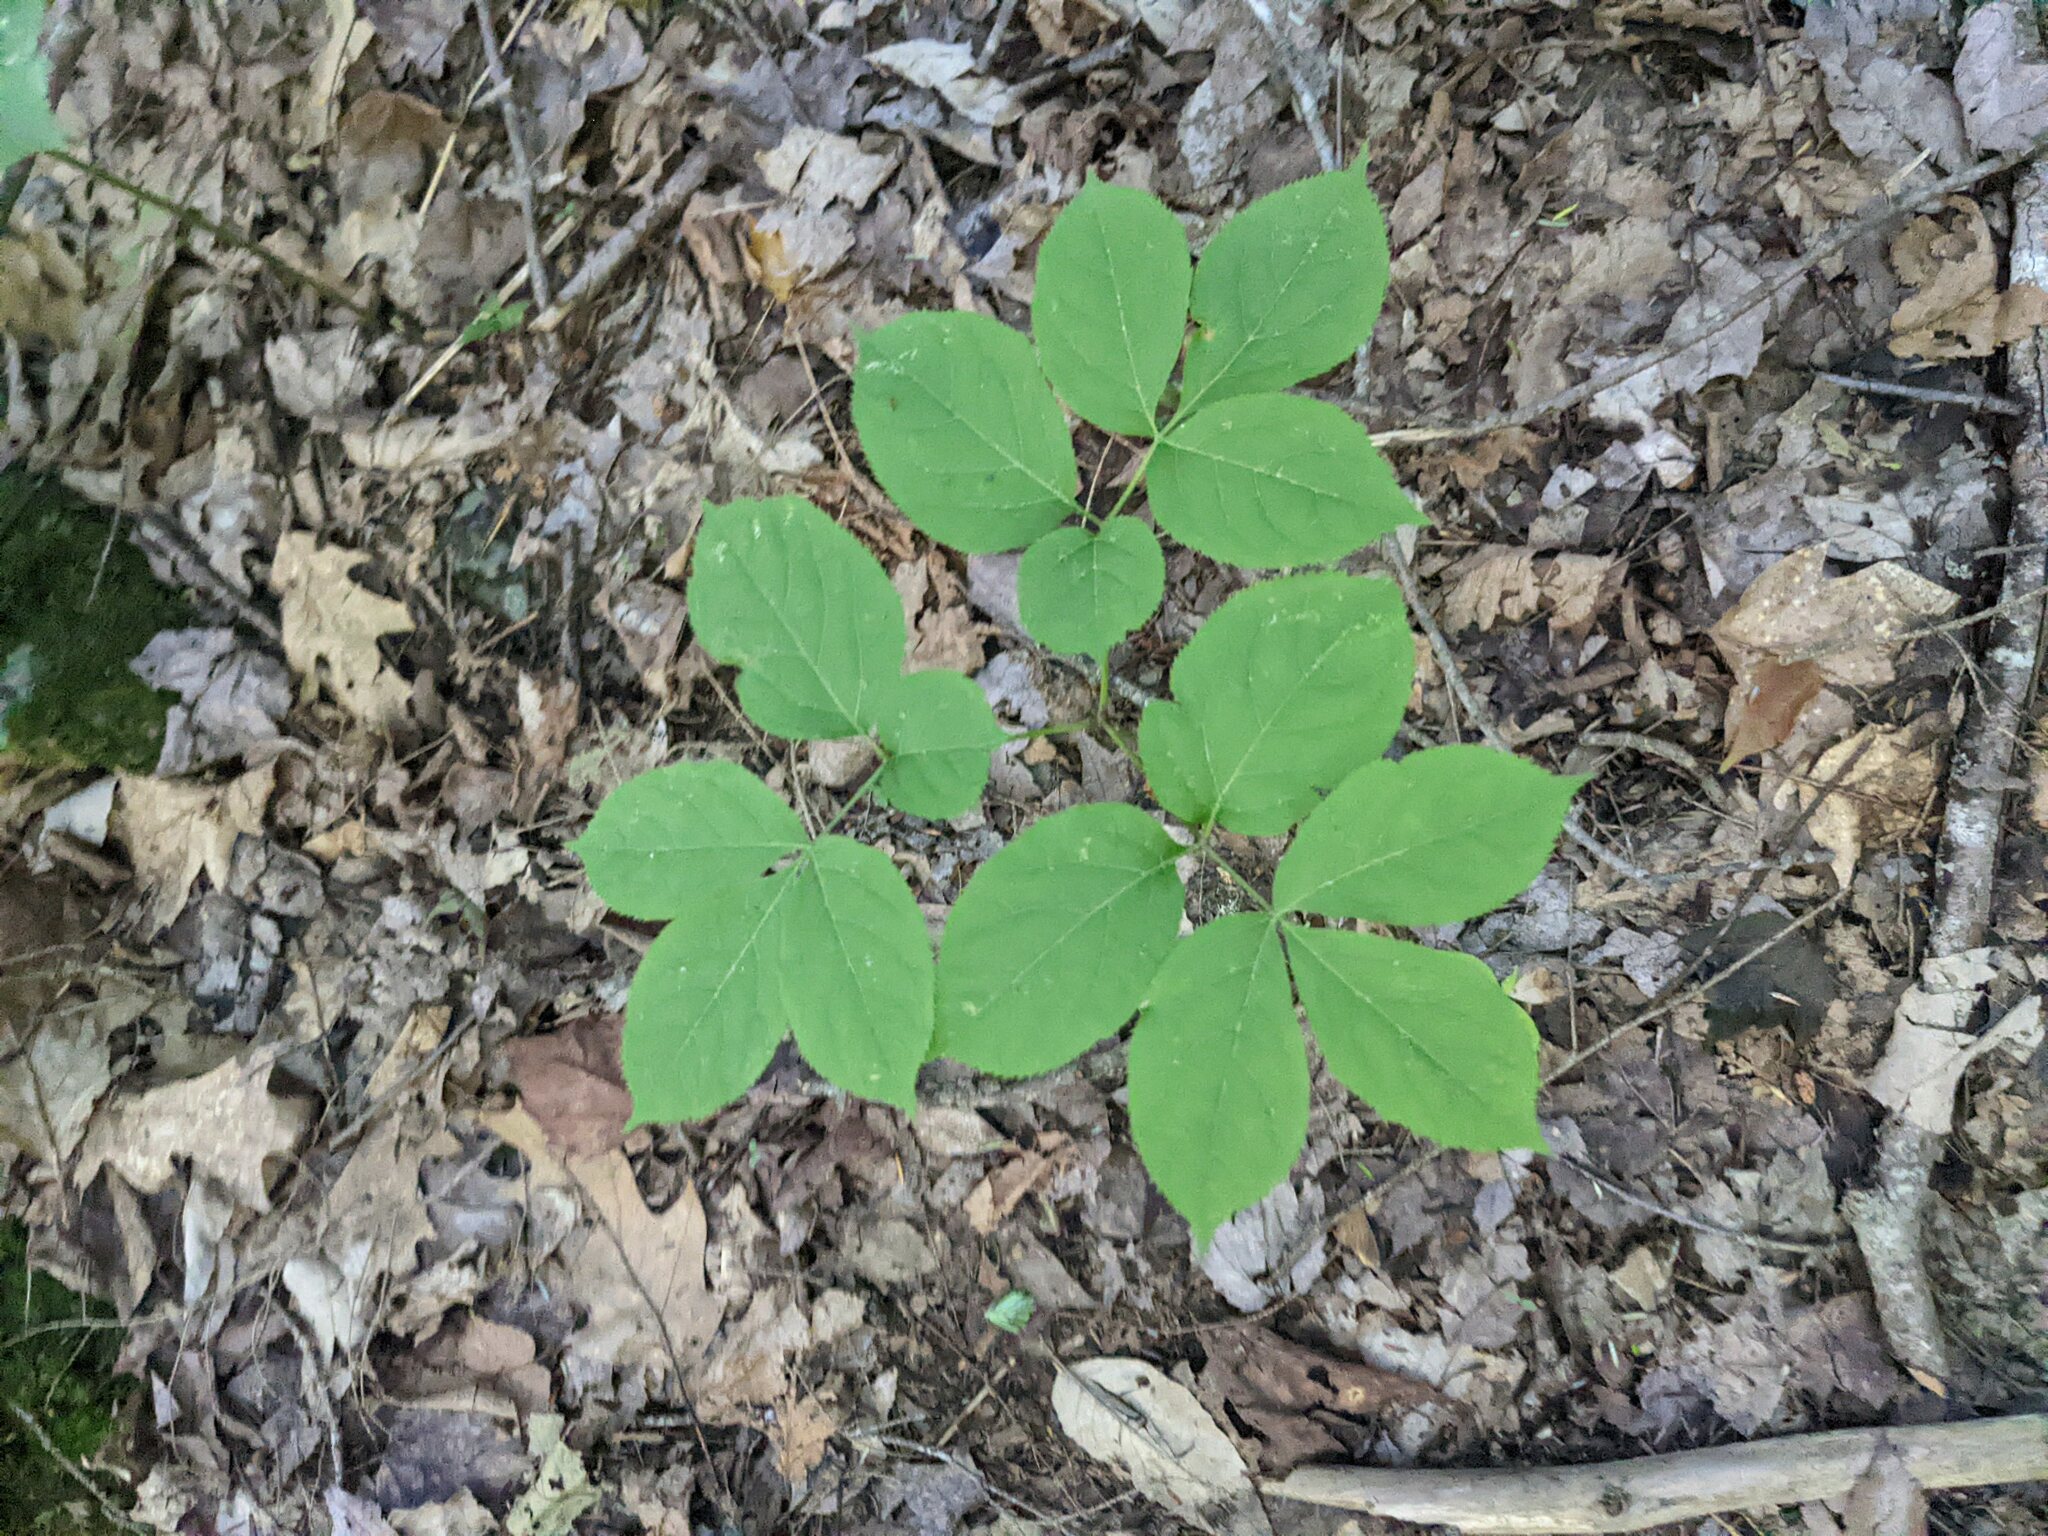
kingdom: Plantae
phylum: Tracheophyta
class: Magnoliopsida
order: Apiales
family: Araliaceae
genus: Aralia
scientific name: Aralia nudicaulis
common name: Wild sarsaparilla
